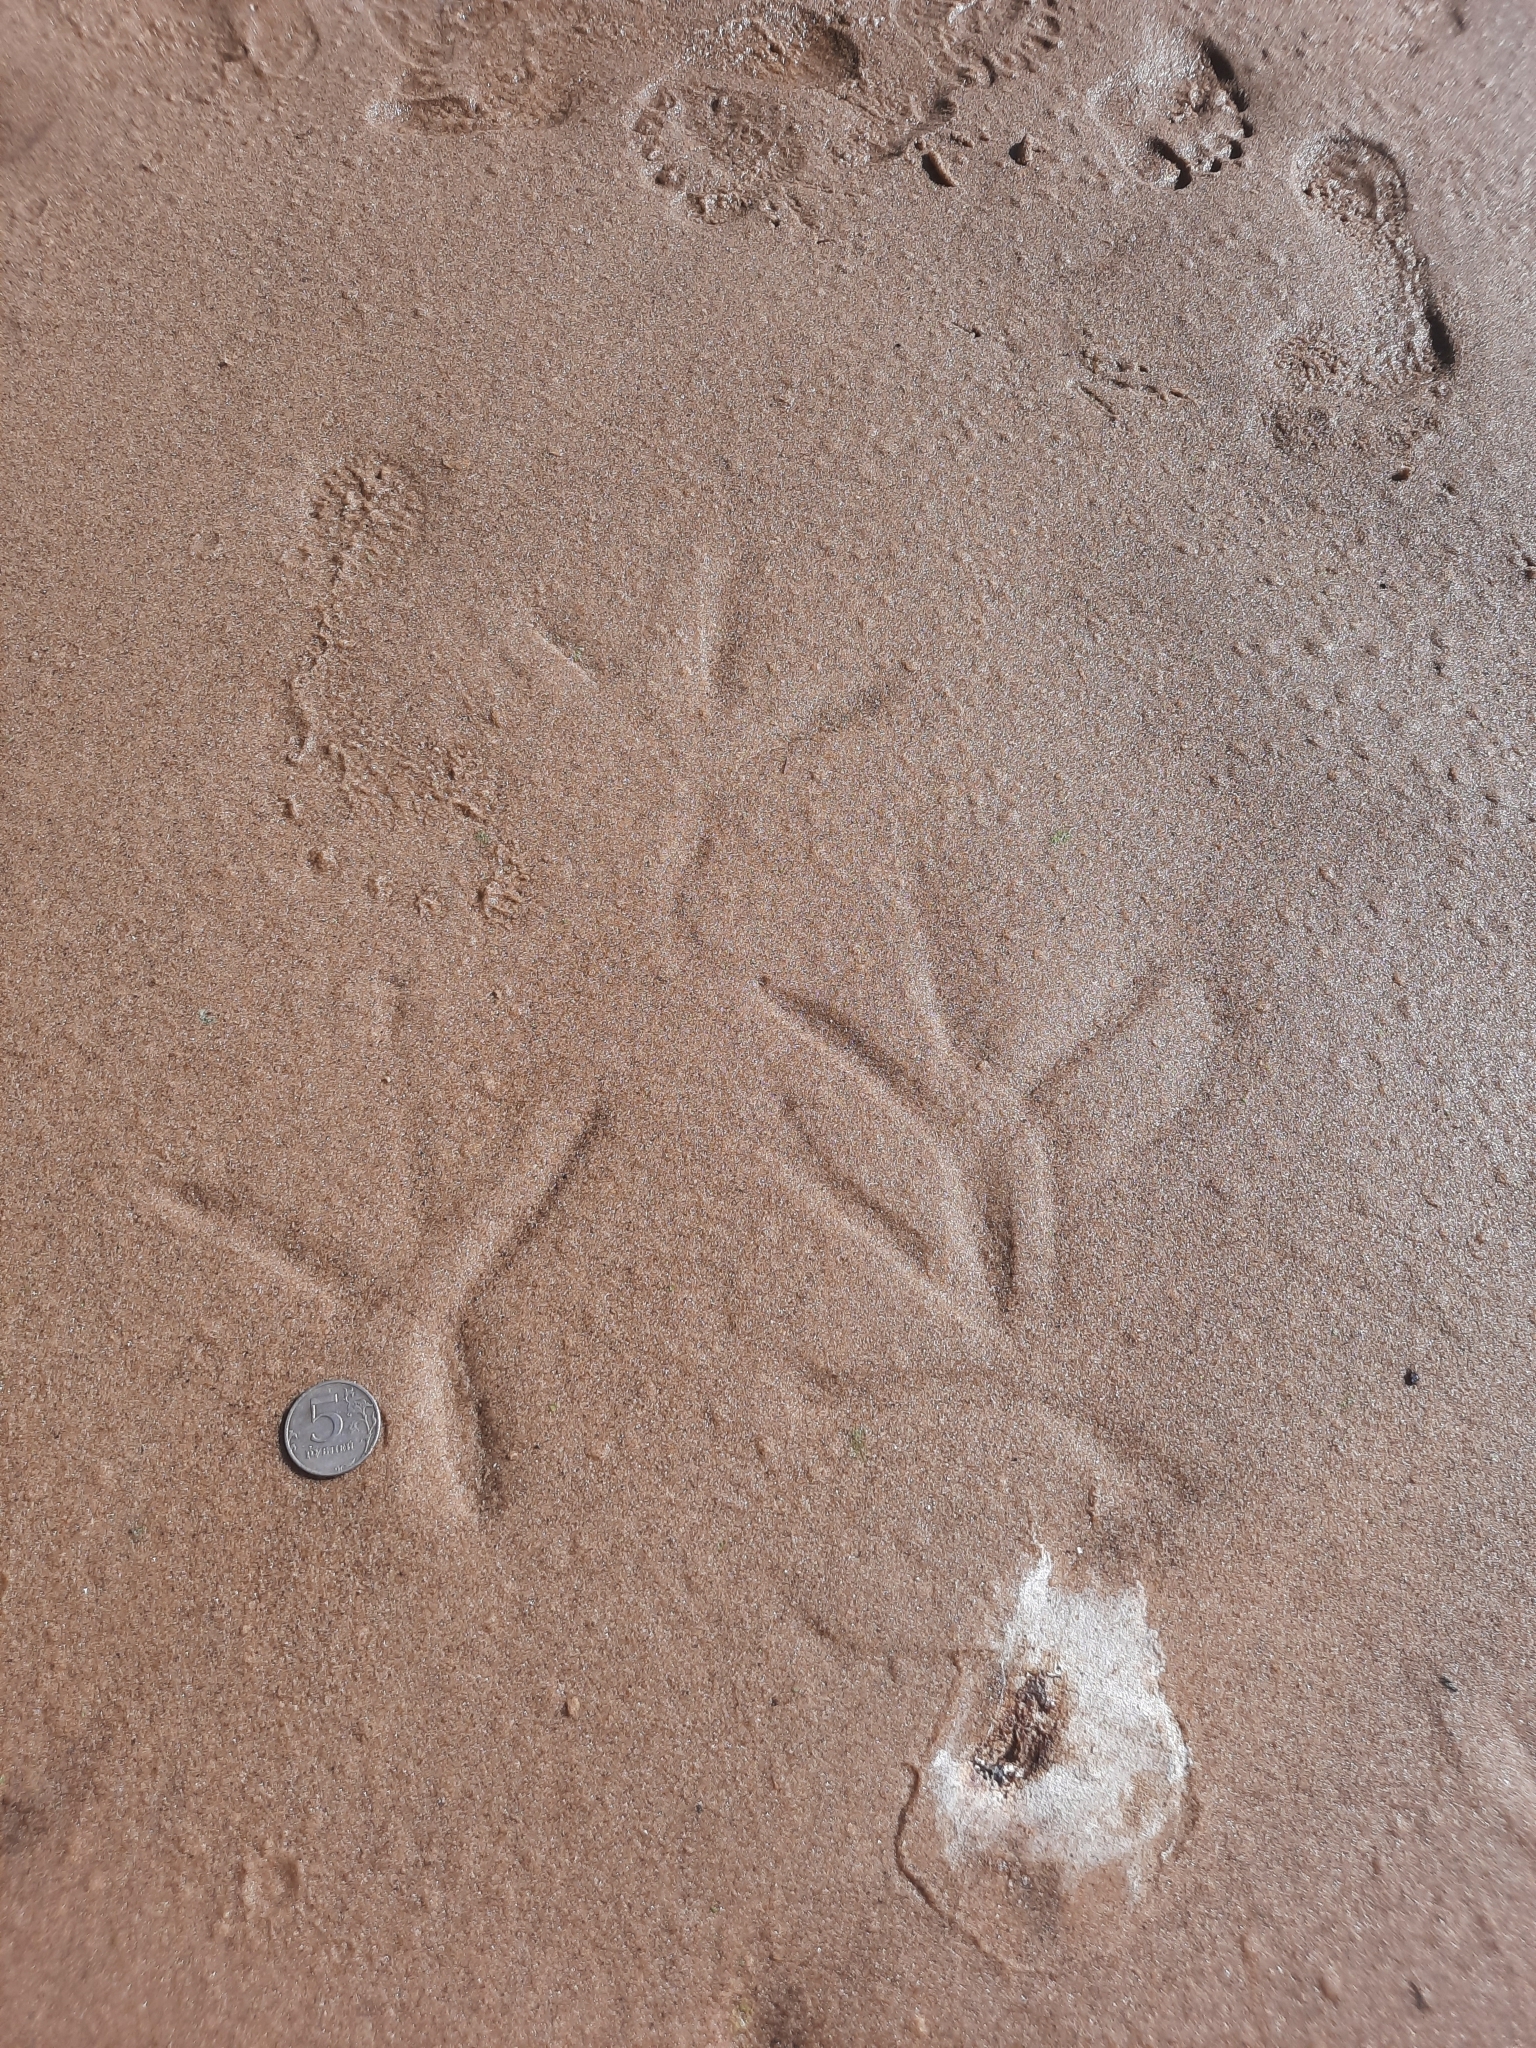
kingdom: Animalia
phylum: Chordata
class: Aves
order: Pelecaniformes
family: Ardeidae
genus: Ardea
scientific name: Ardea cinerea
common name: Grey heron
